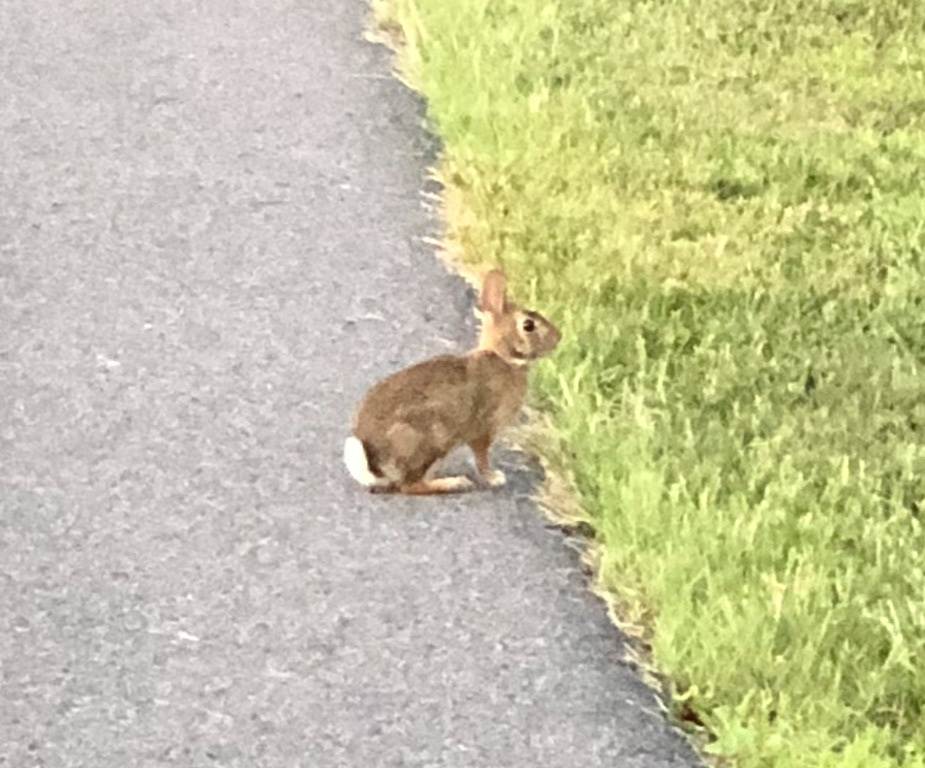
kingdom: Animalia
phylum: Chordata
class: Mammalia
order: Lagomorpha
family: Leporidae
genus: Sylvilagus
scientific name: Sylvilagus floridanus
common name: Eastern cottontail
